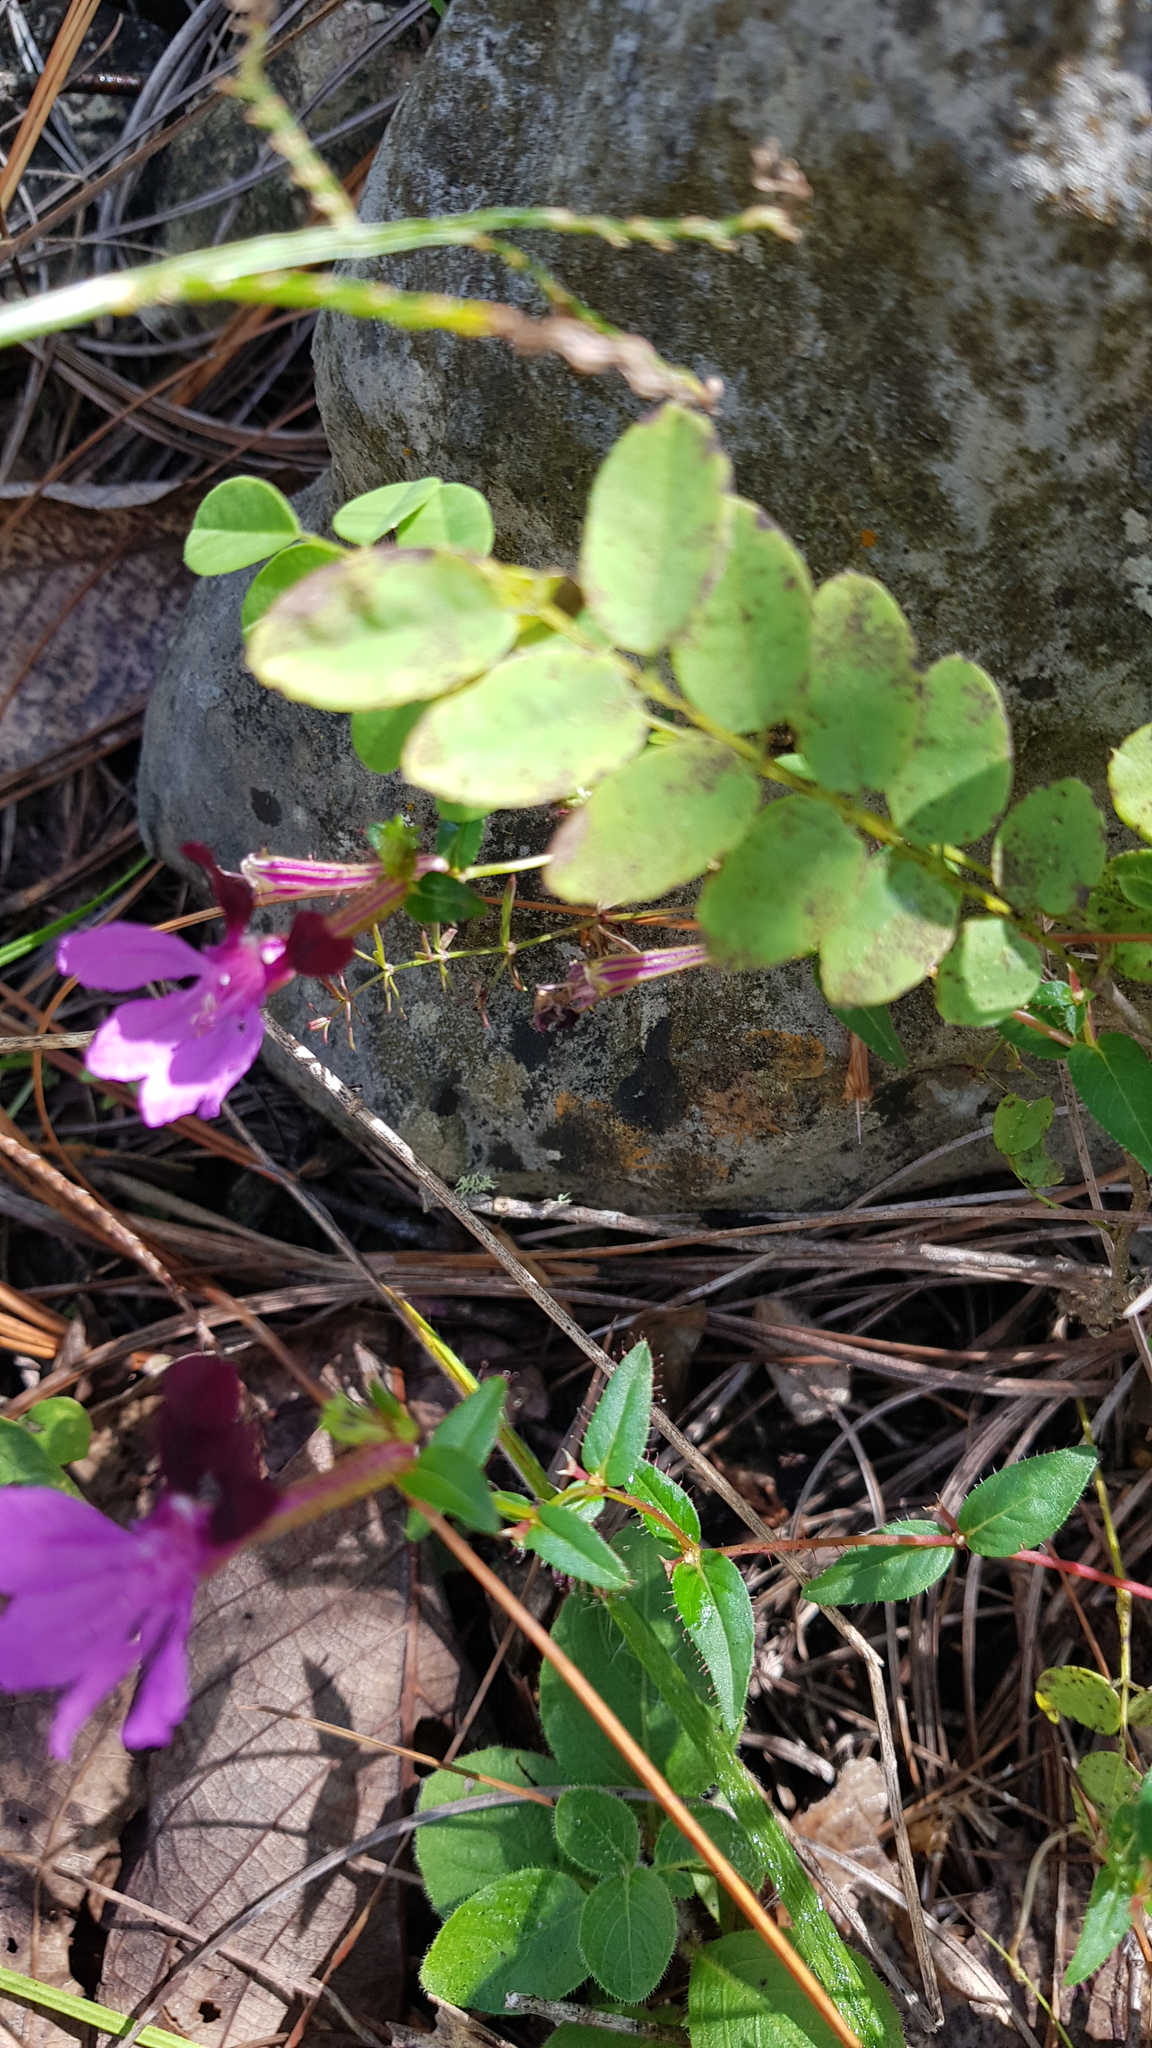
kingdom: Plantae
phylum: Tracheophyta
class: Magnoliopsida
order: Myrtales
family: Lythraceae
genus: Cuphea
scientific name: Cuphea aequipetala
